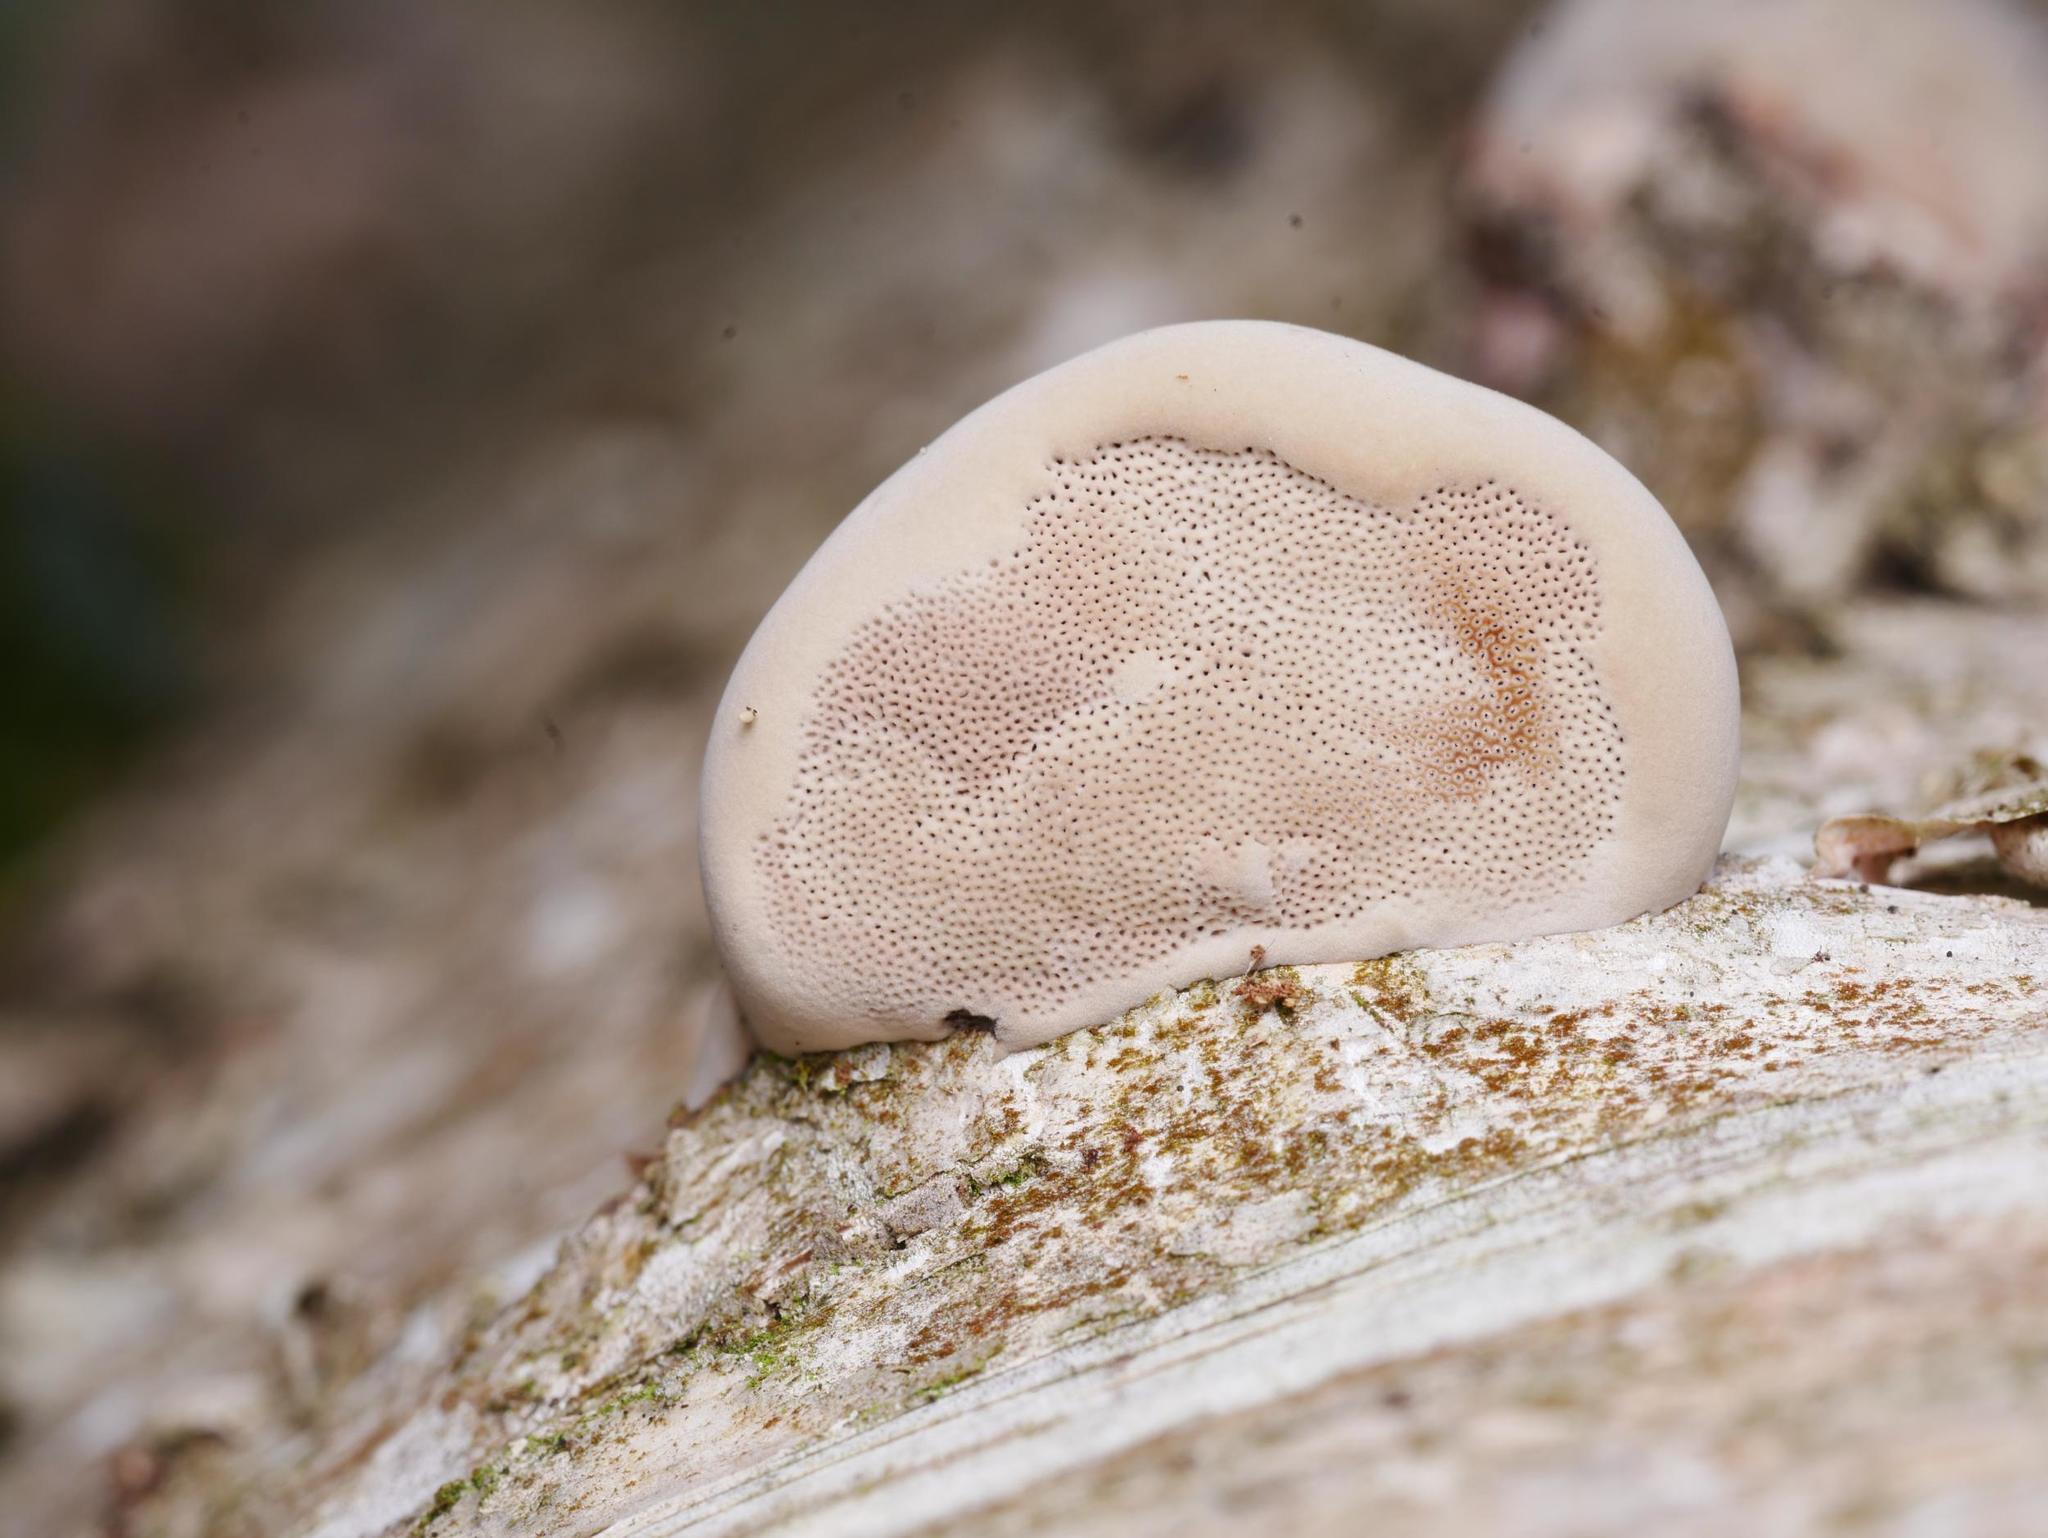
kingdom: Fungi
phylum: Basidiomycota
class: Agaricomycetes
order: Polyporales
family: Fomitopsidaceae
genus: Fomitopsis
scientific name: Fomitopsis pinicola
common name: Red-belted bracket
